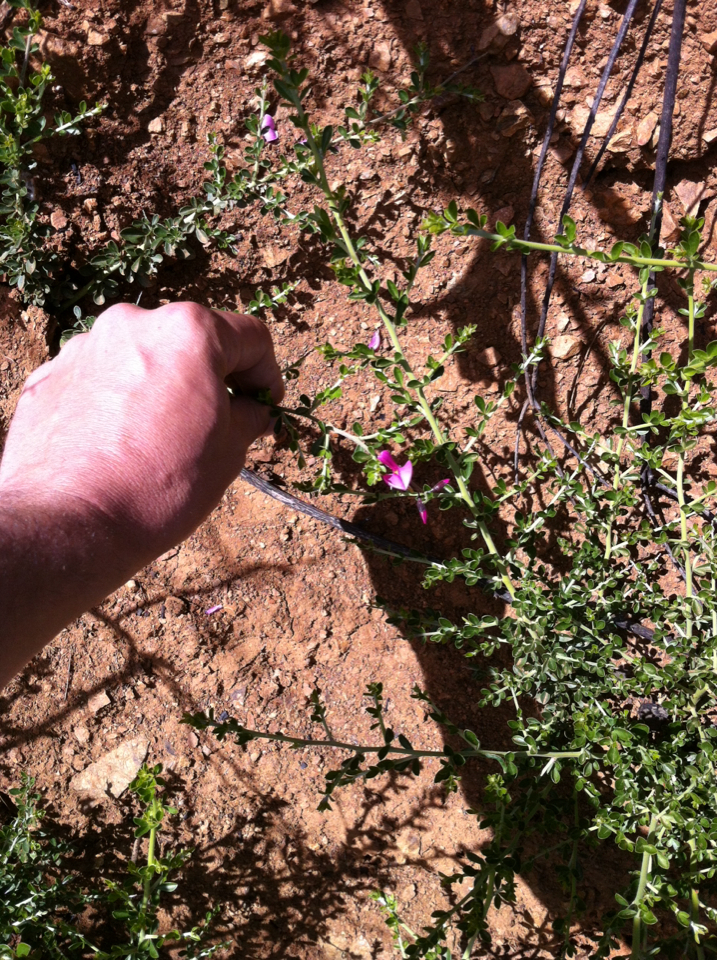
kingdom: Plantae
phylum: Tracheophyta
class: Magnoliopsida
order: Fabales
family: Fabaceae
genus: Pickeringia
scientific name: Pickeringia montana
